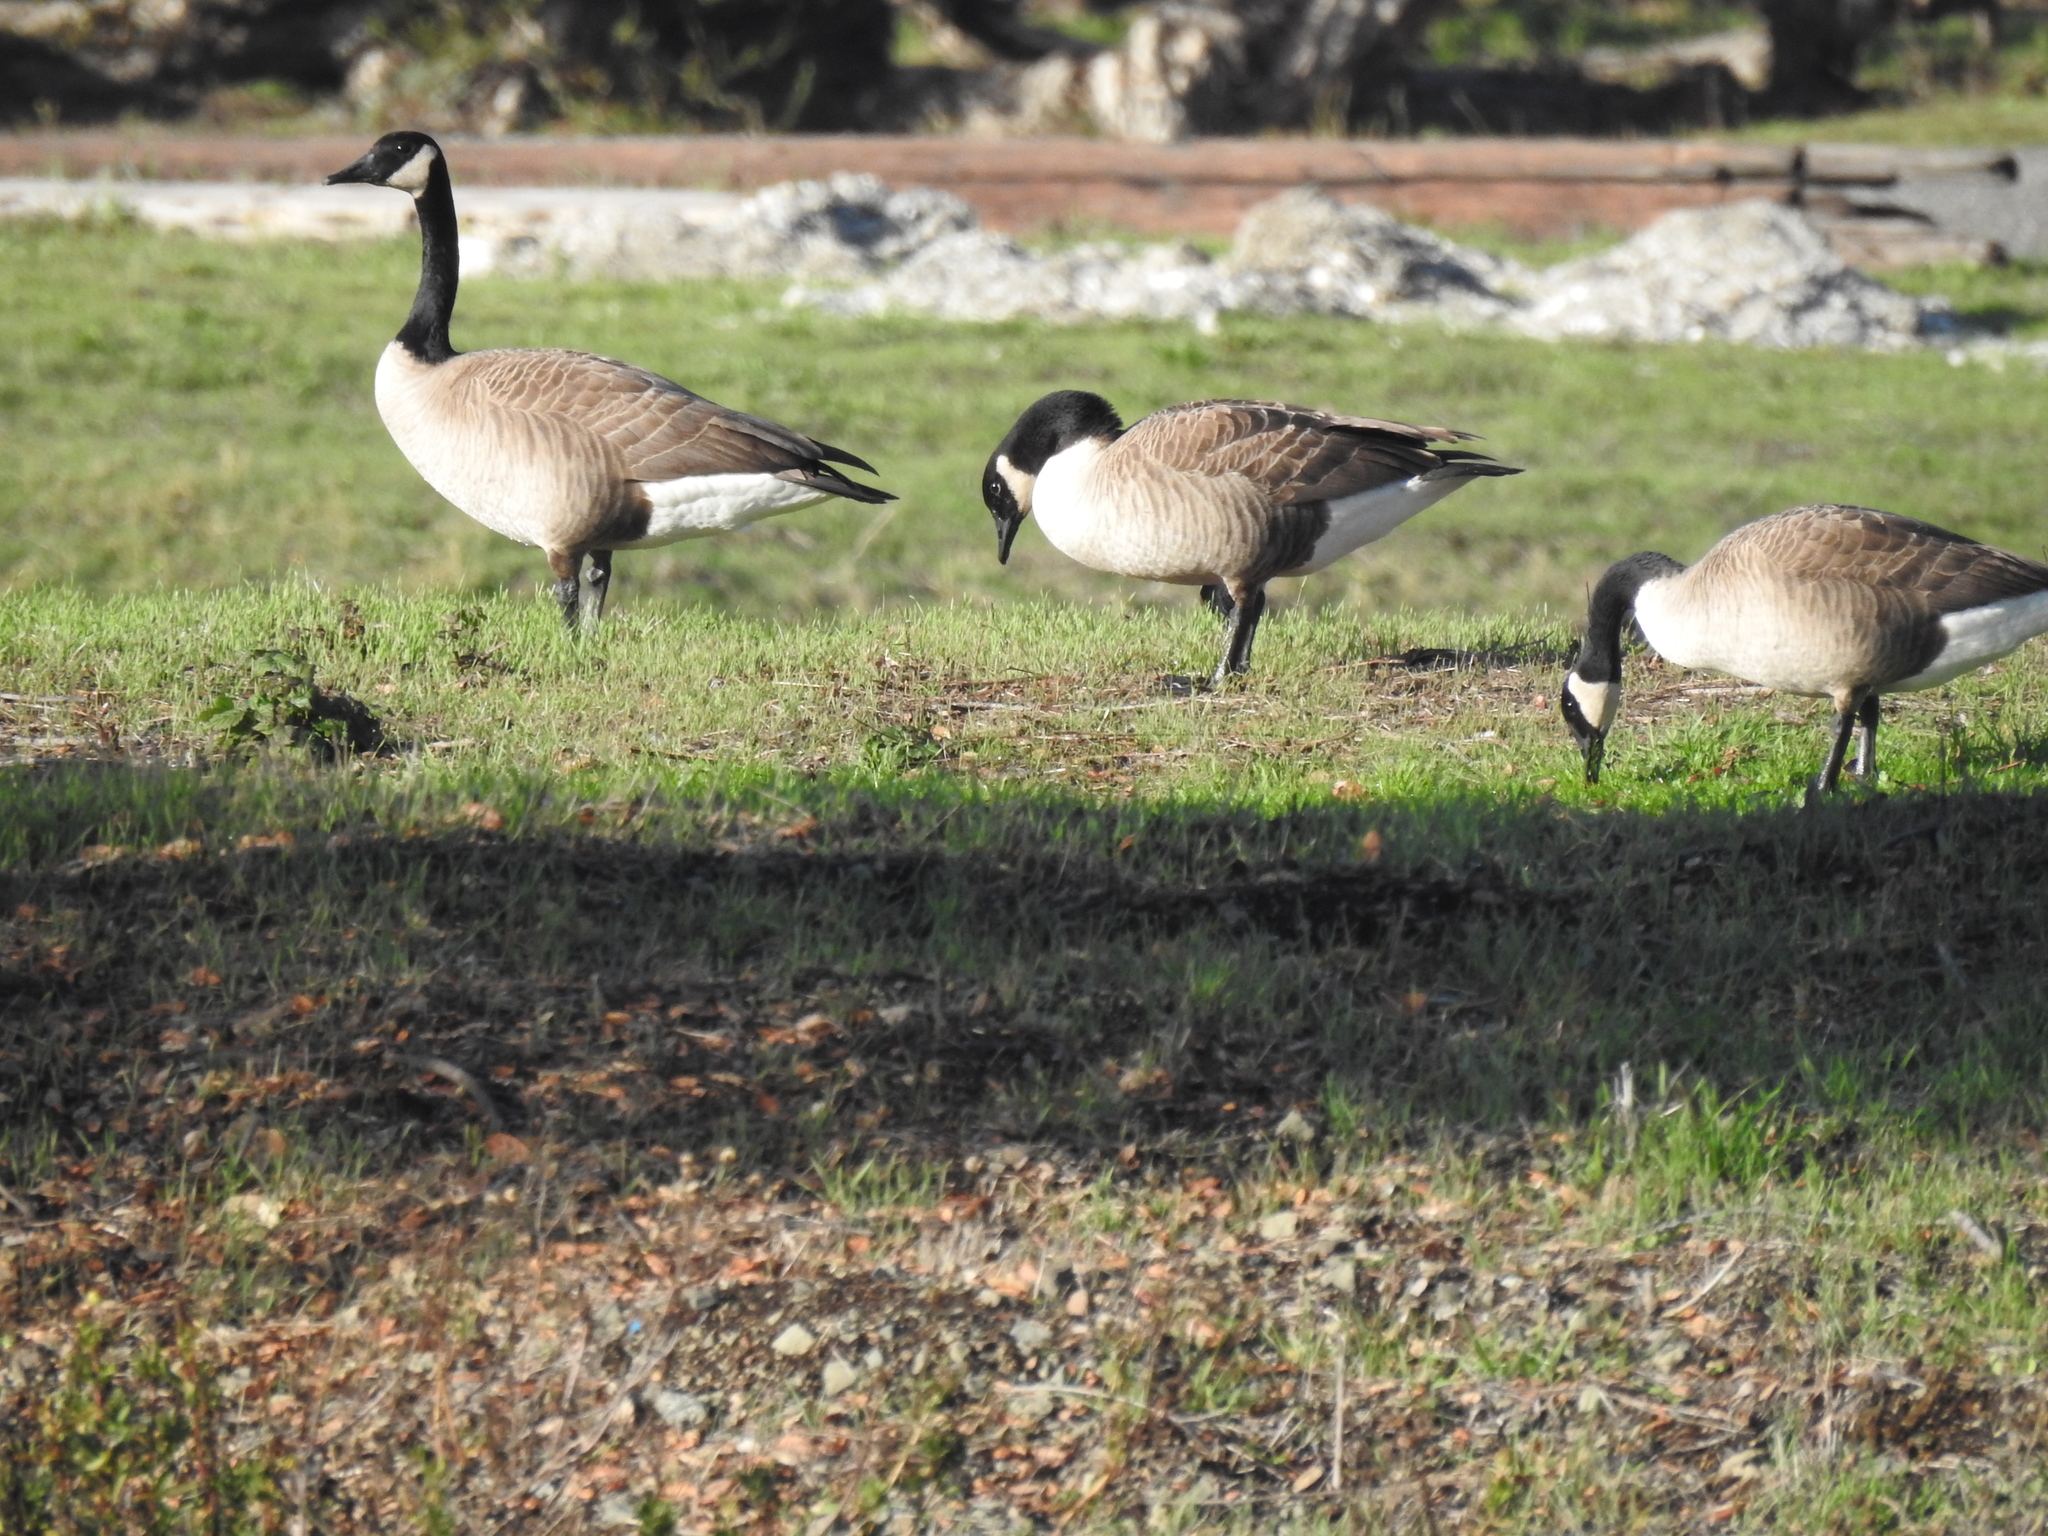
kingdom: Animalia
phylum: Chordata
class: Aves
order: Anseriformes
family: Anatidae
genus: Branta
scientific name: Branta canadensis
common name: Canada goose
